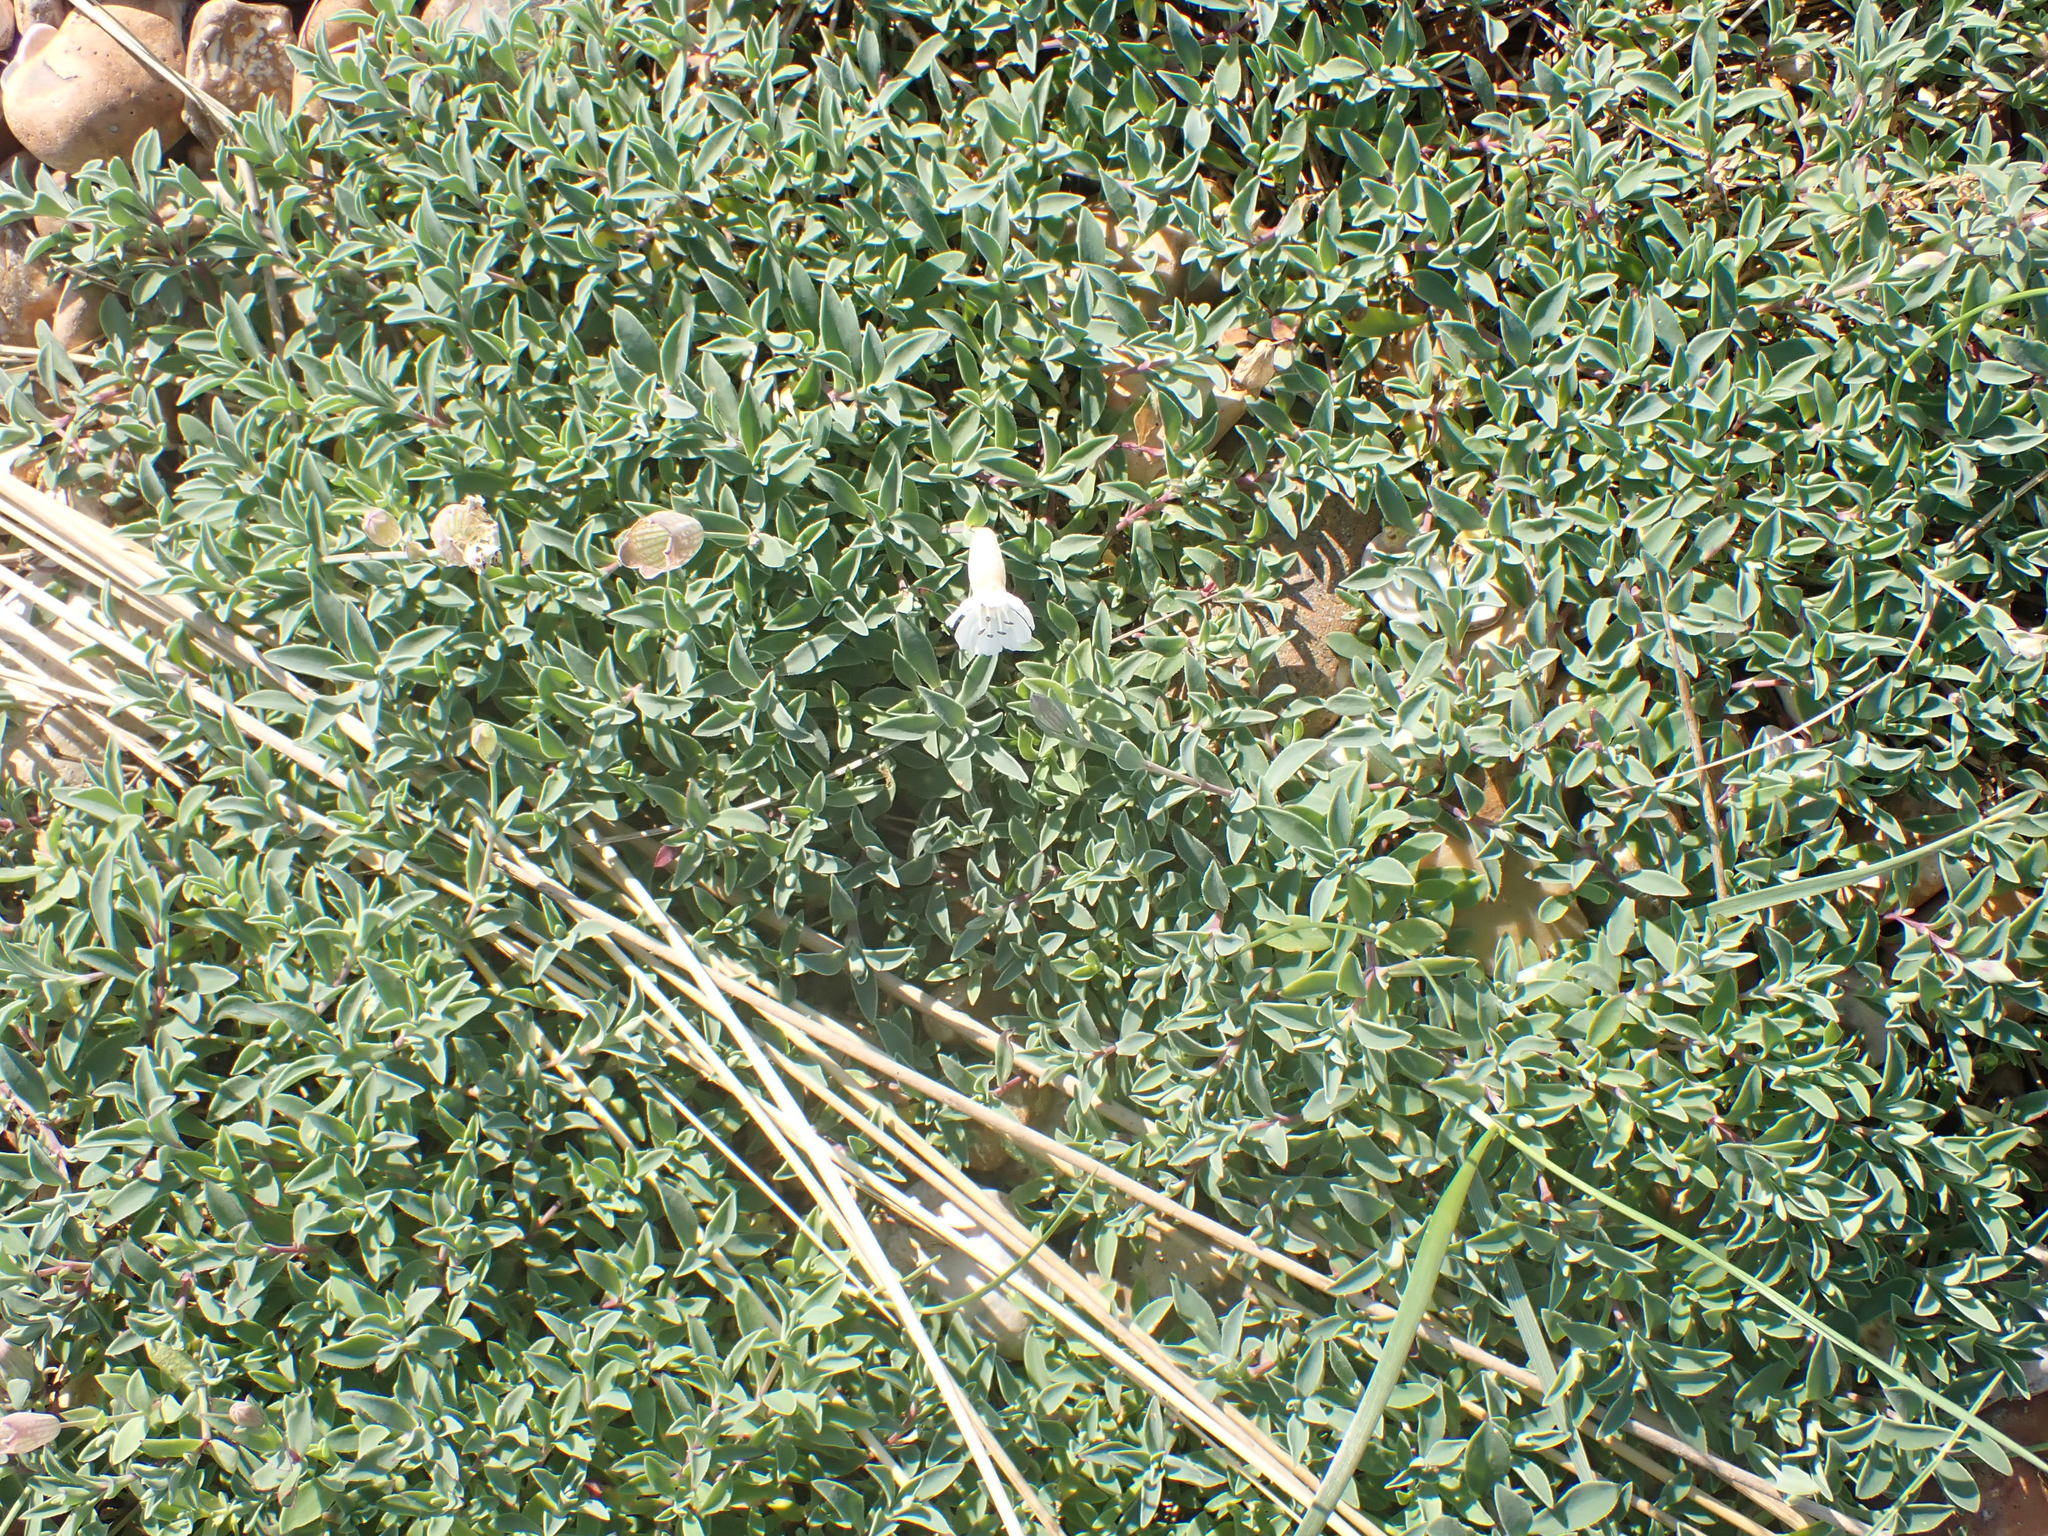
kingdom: Plantae
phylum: Tracheophyta
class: Magnoliopsida
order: Caryophyllales
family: Caryophyllaceae
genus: Silene
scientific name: Silene uniflora
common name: Sea campion
